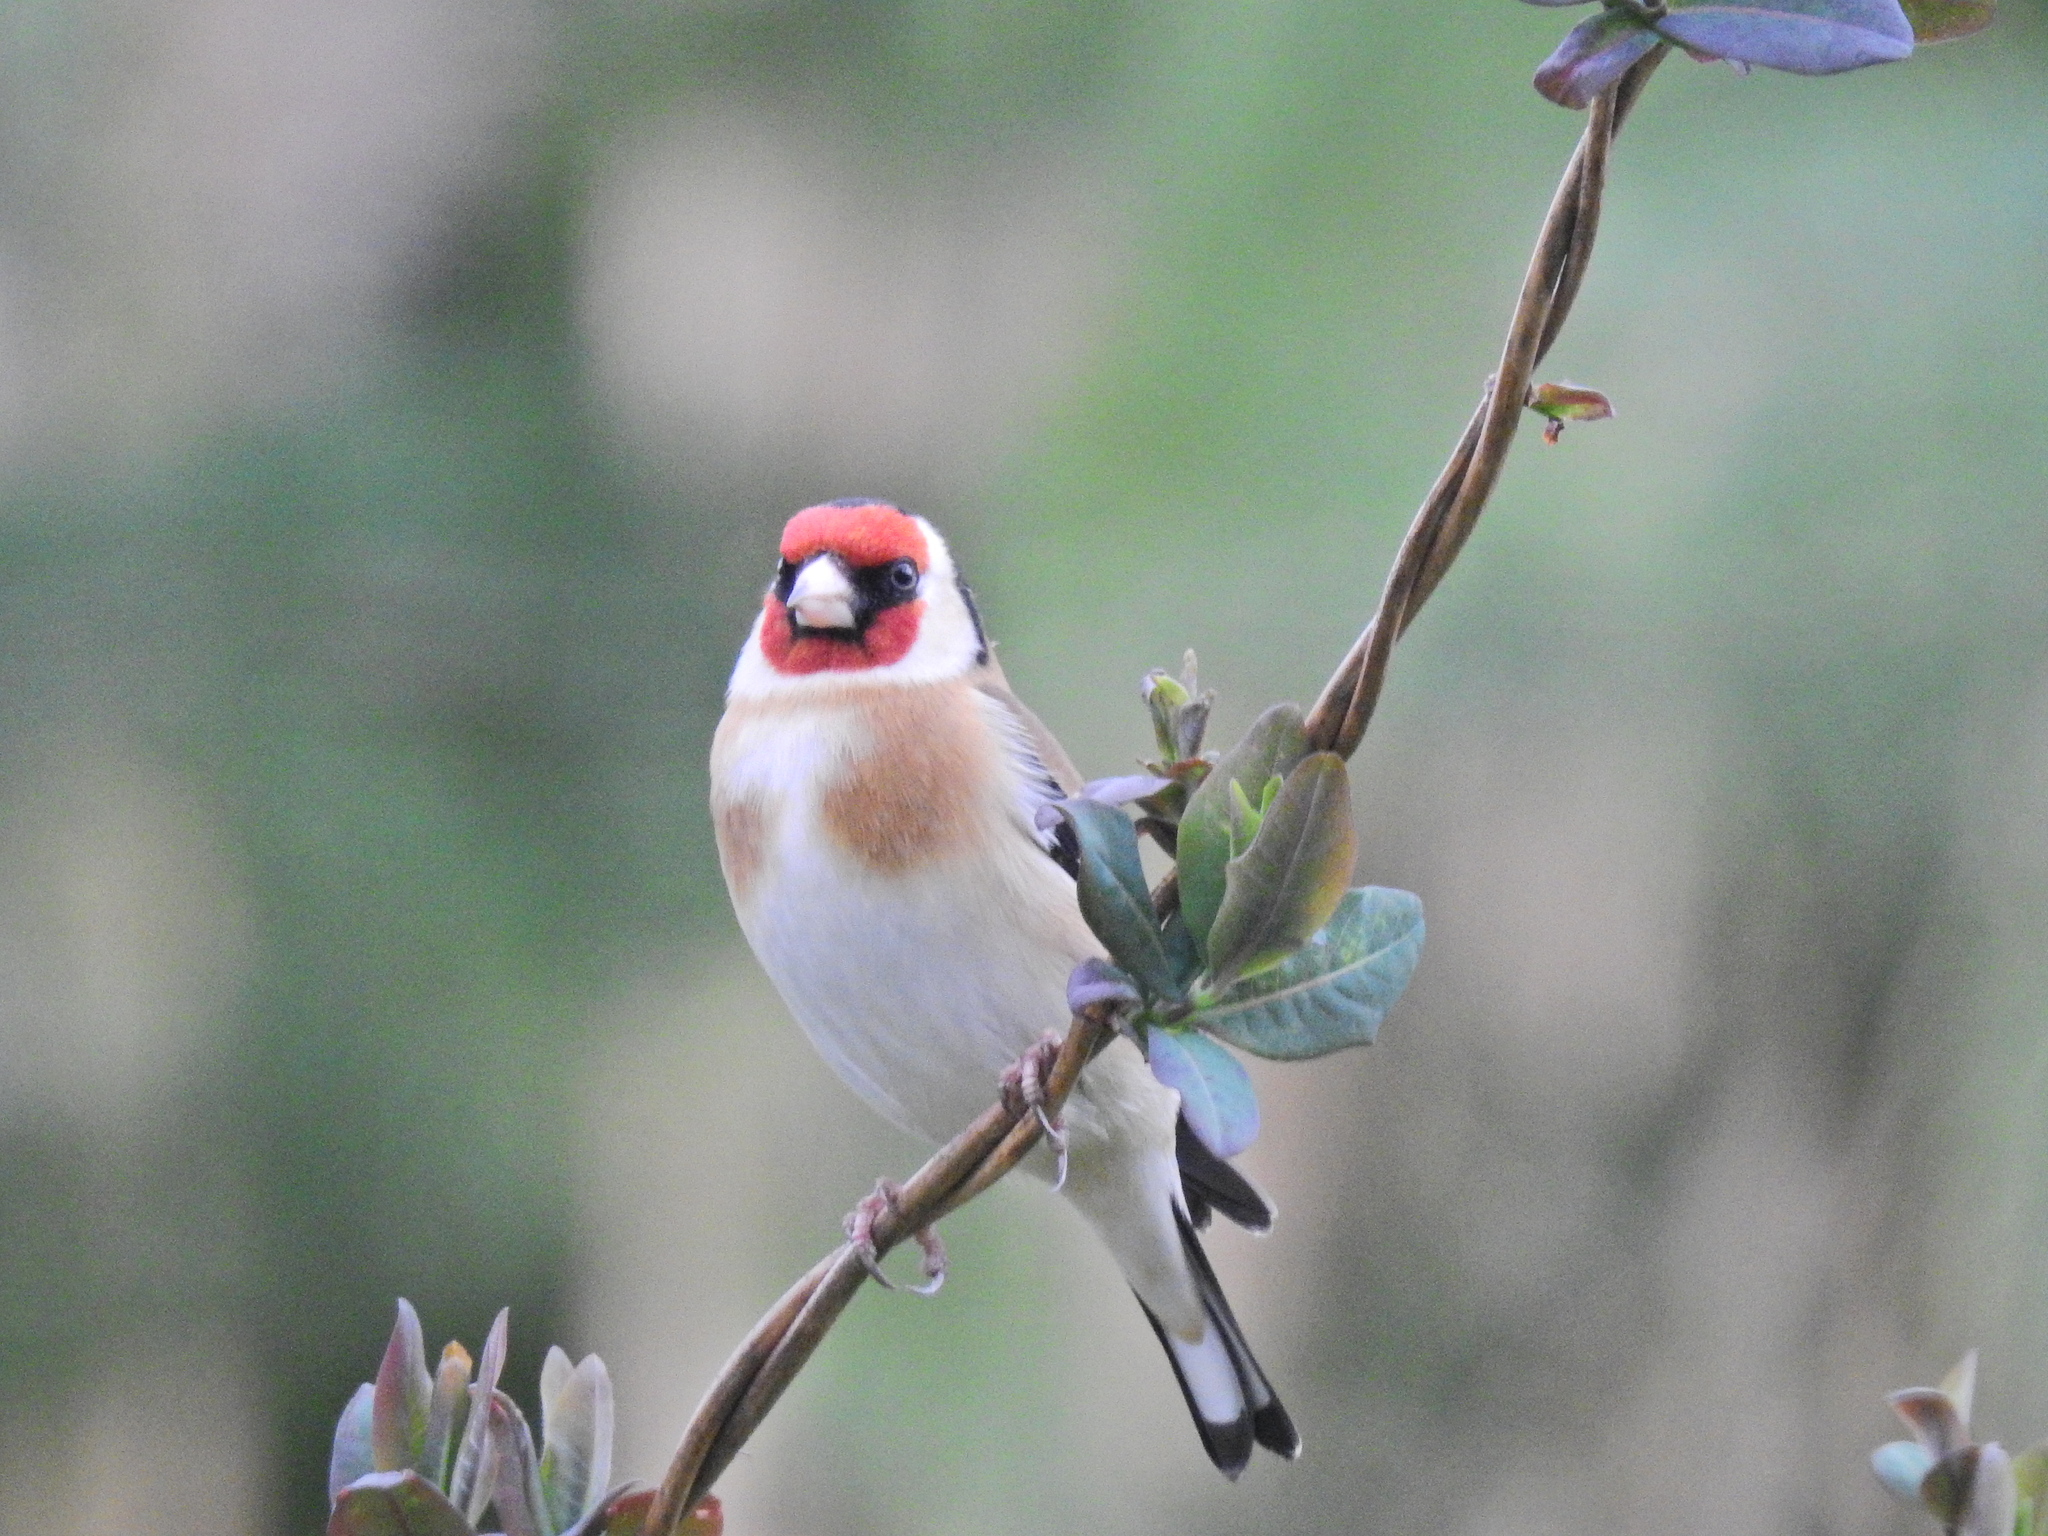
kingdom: Animalia
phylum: Chordata
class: Aves
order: Passeriformes
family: Fringillidae
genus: Carduelis
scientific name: Carduelis carduelis
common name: European goldfinch
